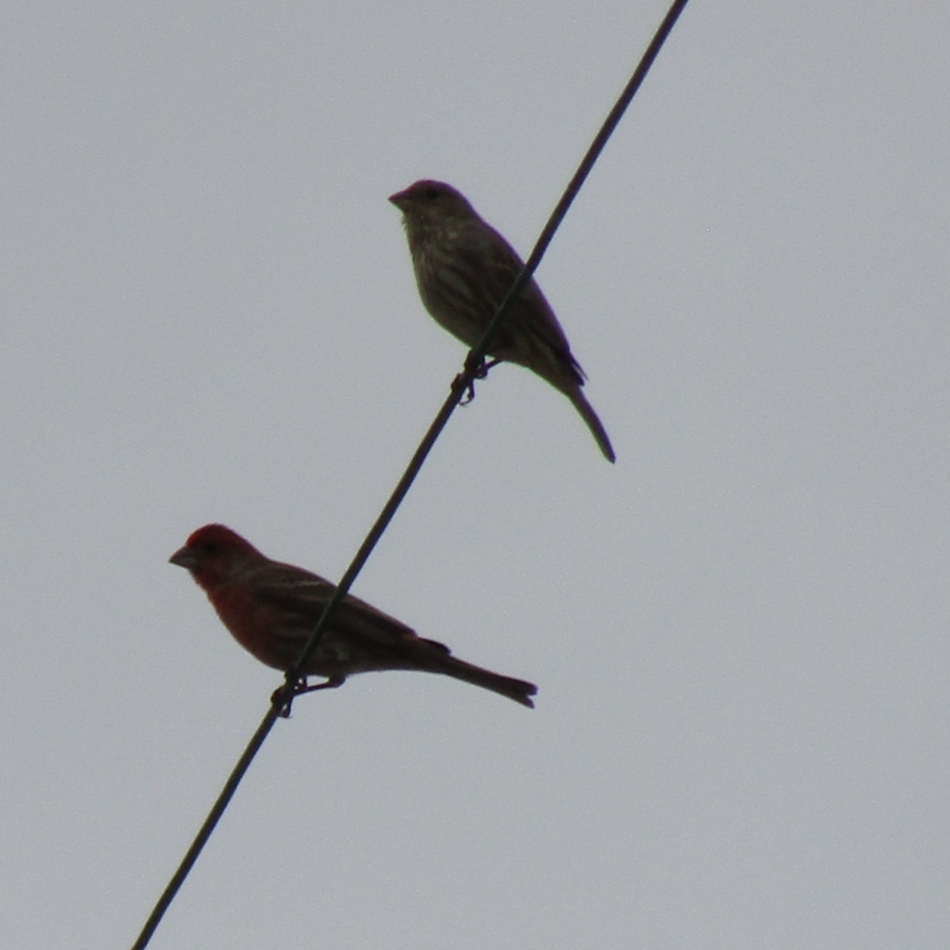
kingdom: Animalia
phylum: Chordata
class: Aves
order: Passeriformes
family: Fringillidae
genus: Haemorhous
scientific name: Haemorhous mexicanus
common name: House finch
